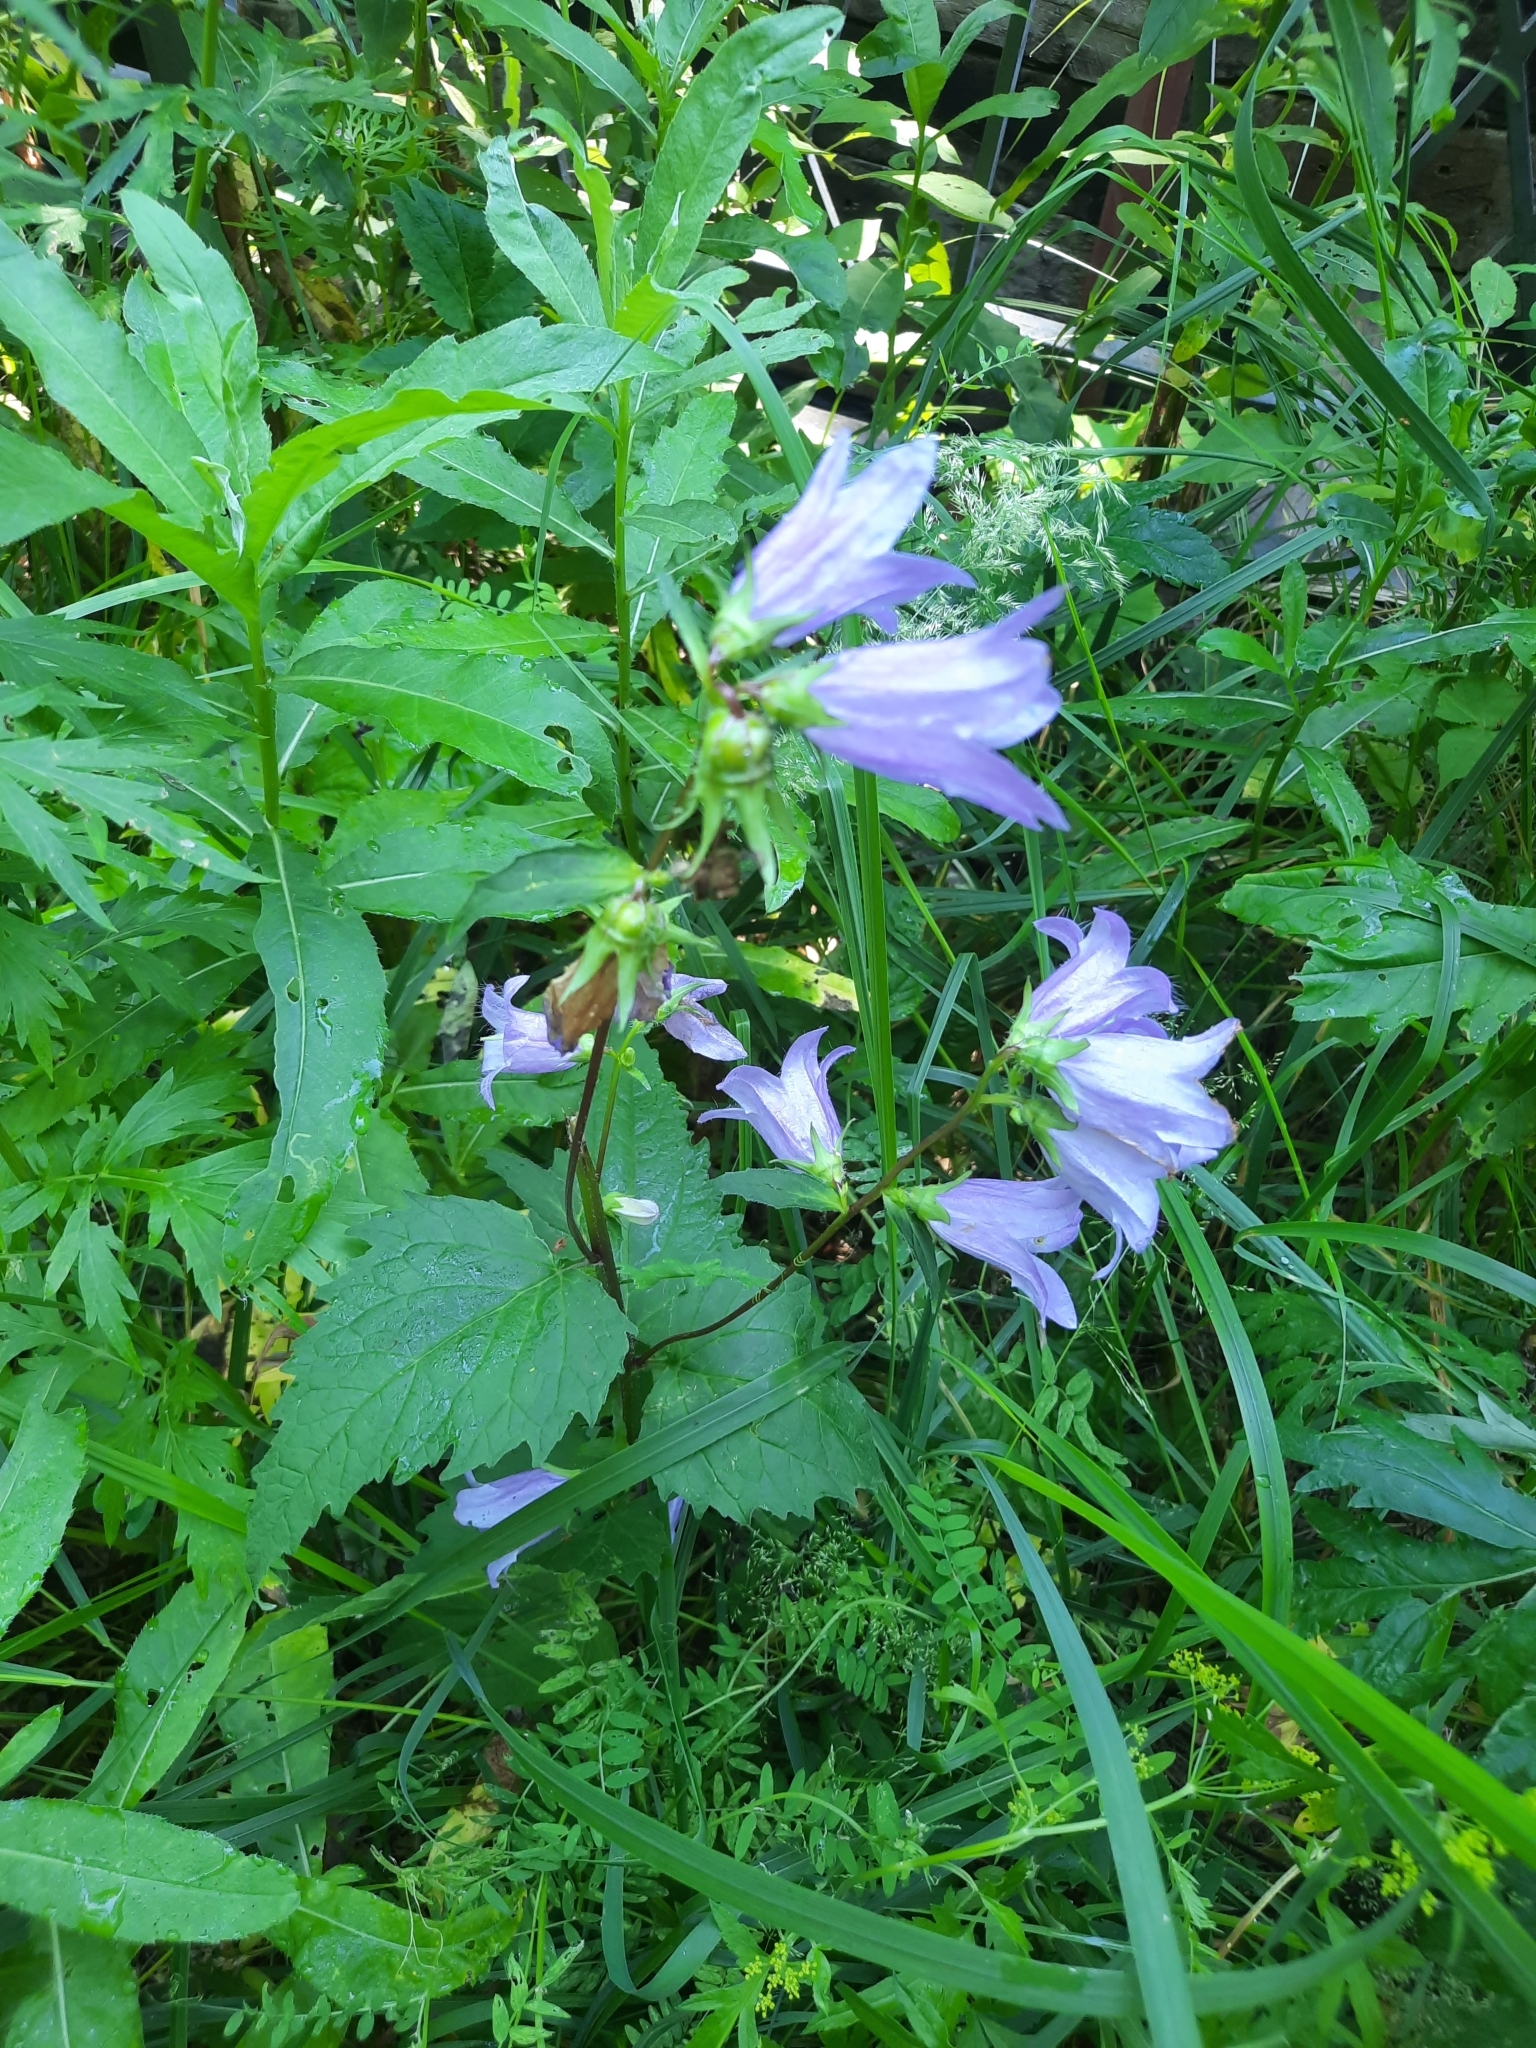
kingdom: Plantae
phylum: Tracheophyta
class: Magnoliopsida
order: Asterales
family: Campanulaceae
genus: Campanula
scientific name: Campanula trachelium
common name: Nettle-leaved bellflower
